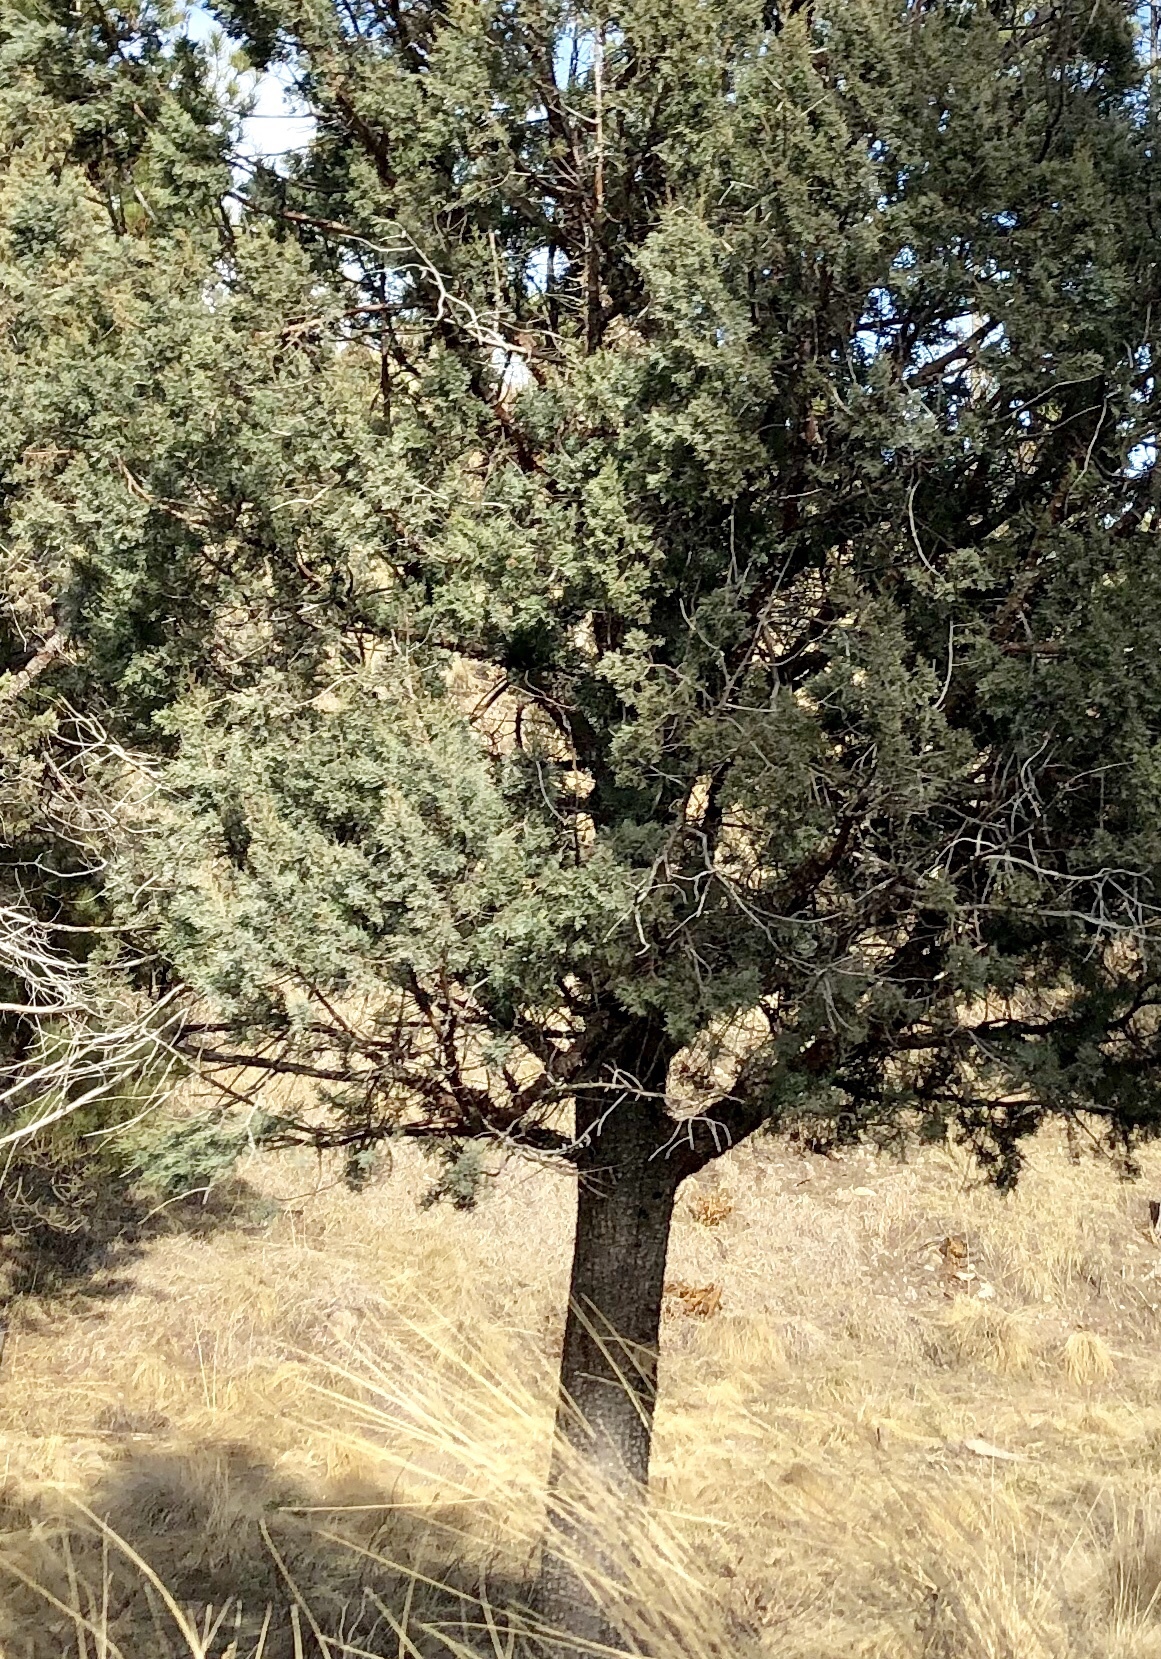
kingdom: Plantae
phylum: Tracheophyta
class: Pinopsida
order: Pinales
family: Cupressaceae
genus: Juniperus
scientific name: Juniperus deppeana
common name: Alligator juniper
